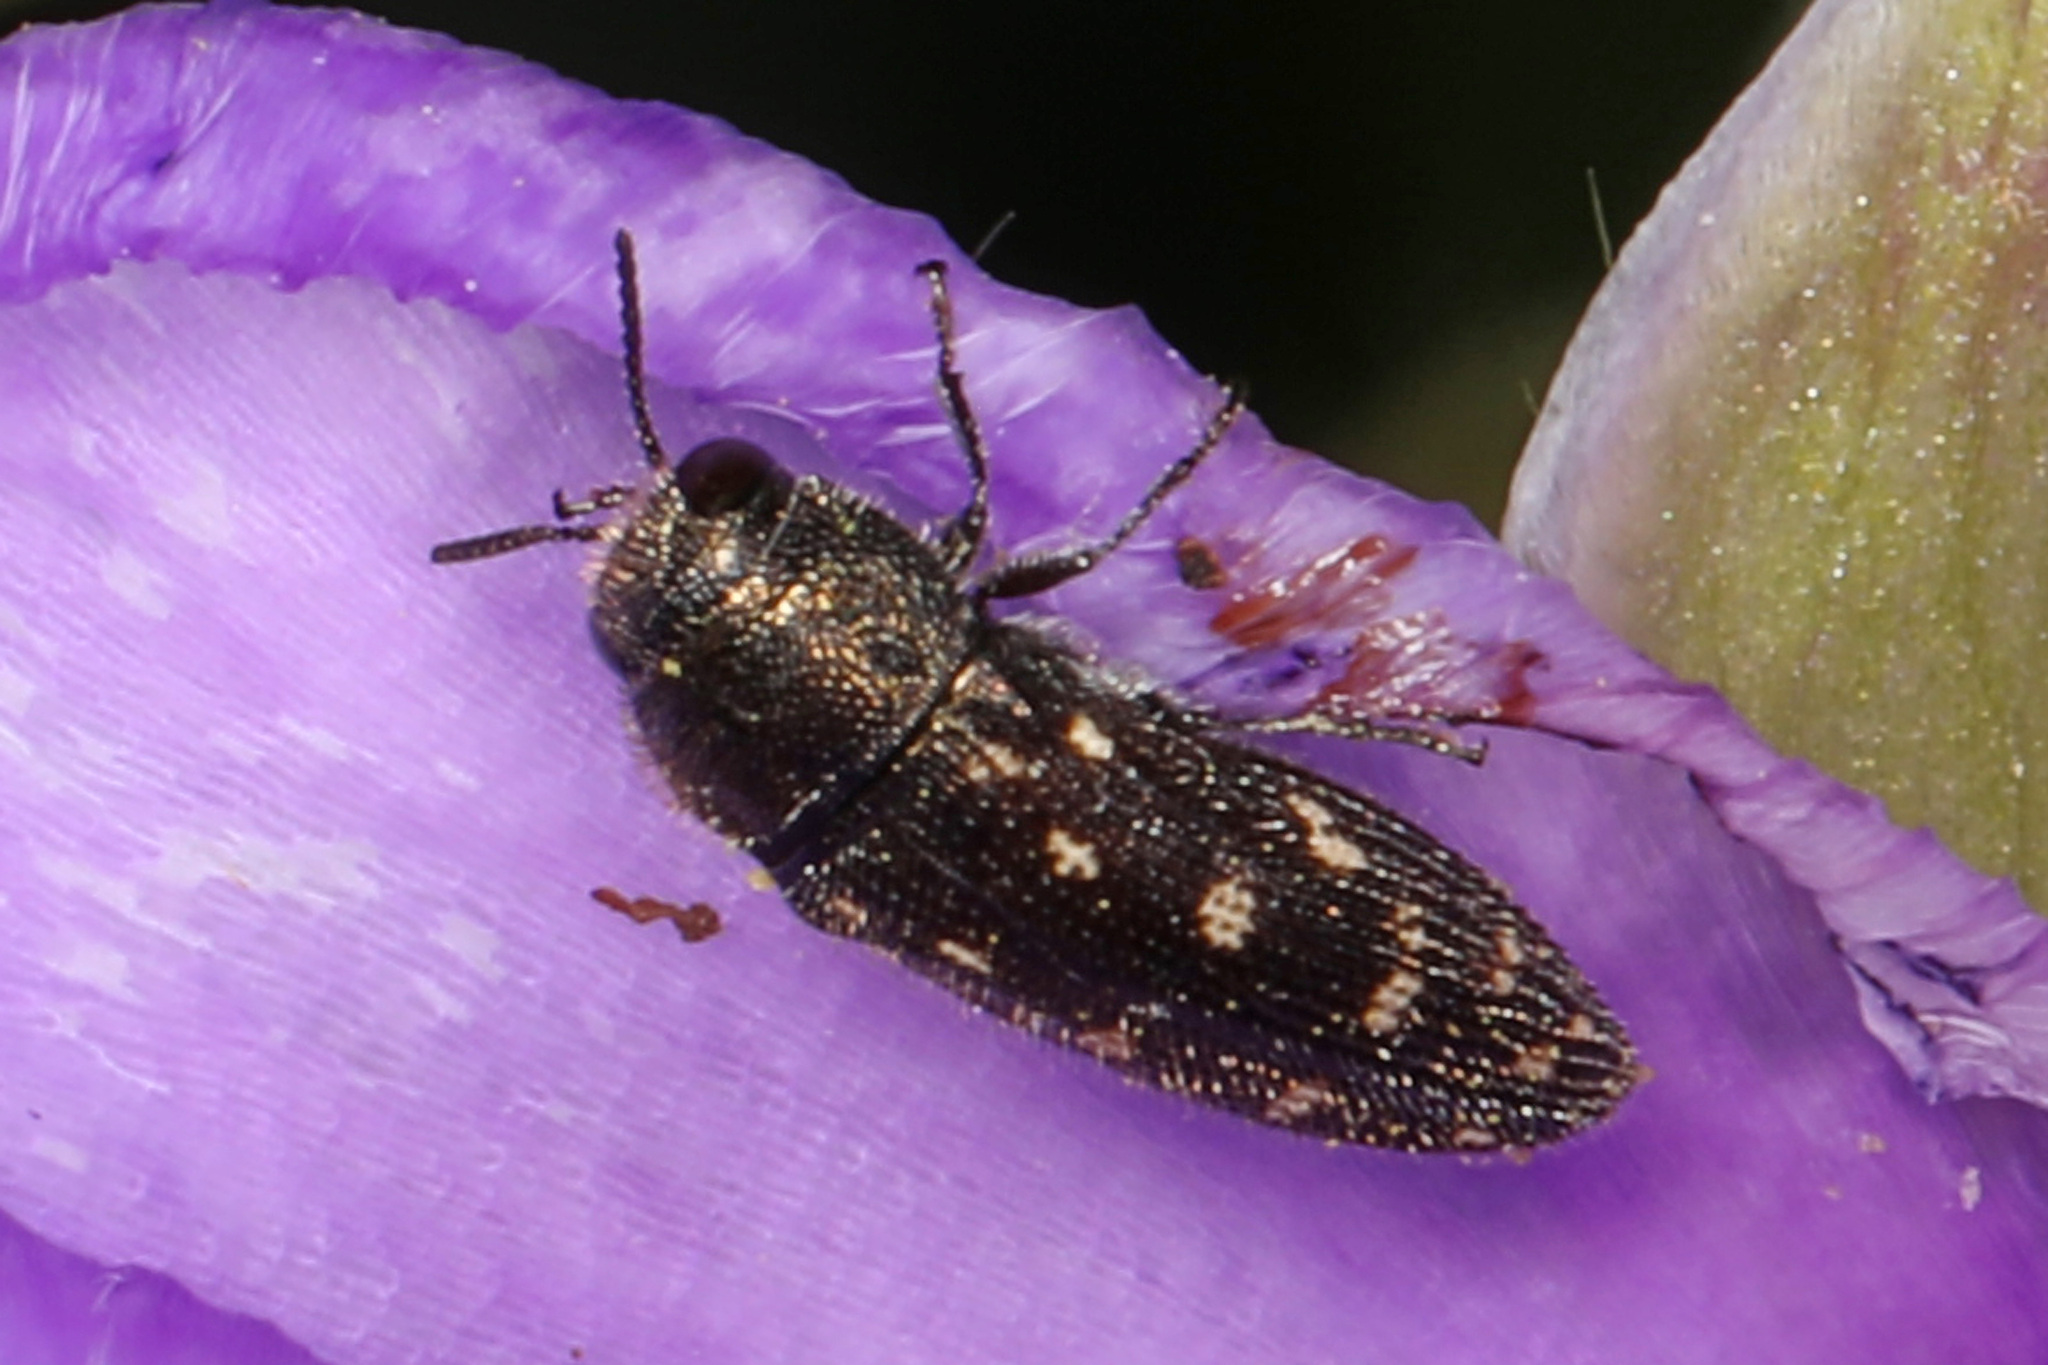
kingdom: Animalia
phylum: Arthropoda
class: Insecta
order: Coleoptera
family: Buprestidae
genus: Acmaeodera
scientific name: Acmaeodera tubulus
